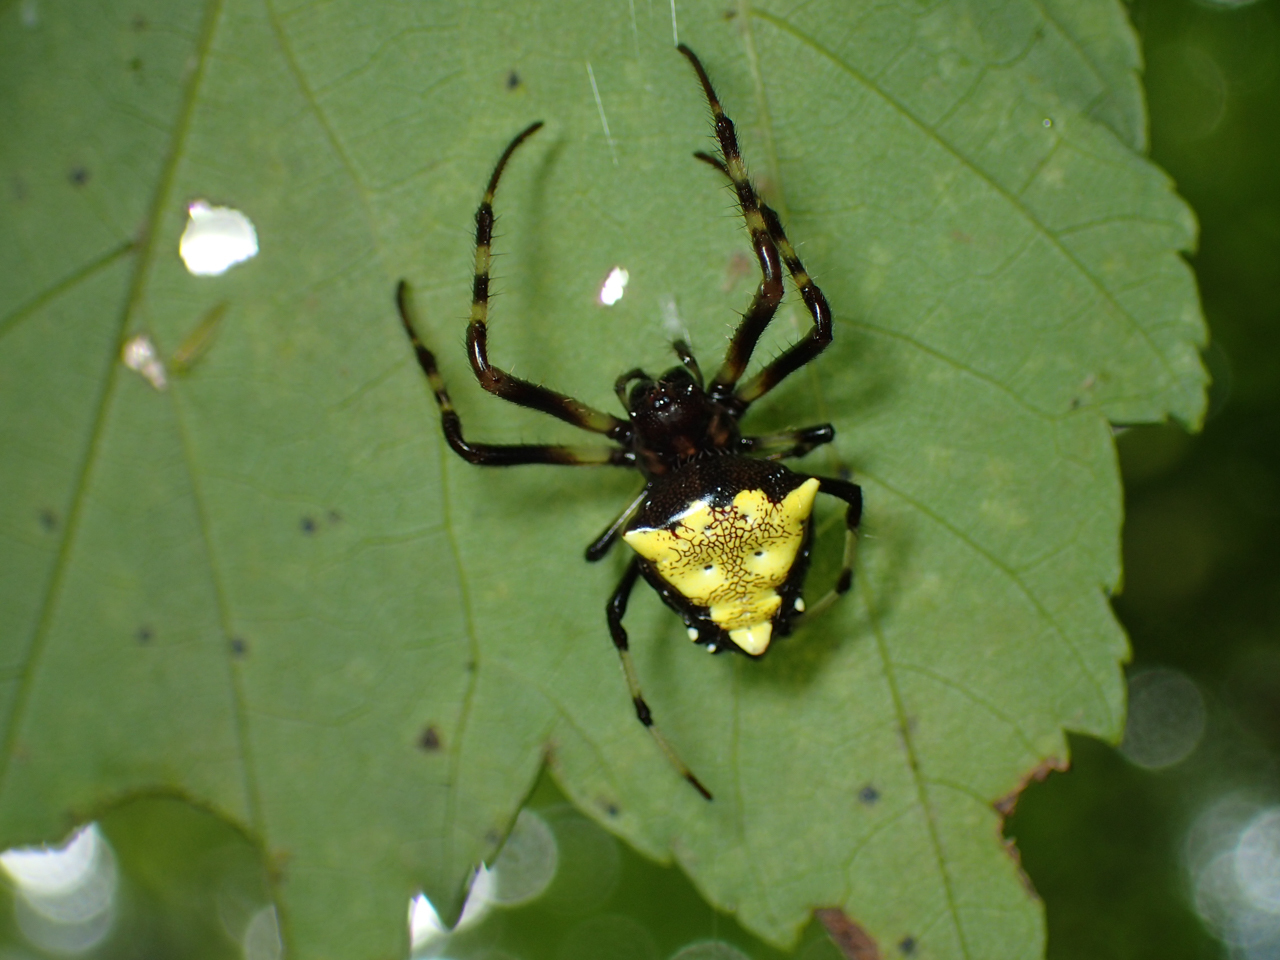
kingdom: Animalia
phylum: Arthropoda
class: Arachnida
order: Araneae
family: Araneidae
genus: Verrucosa
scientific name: Verrucosa arenata
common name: Orb weavers
